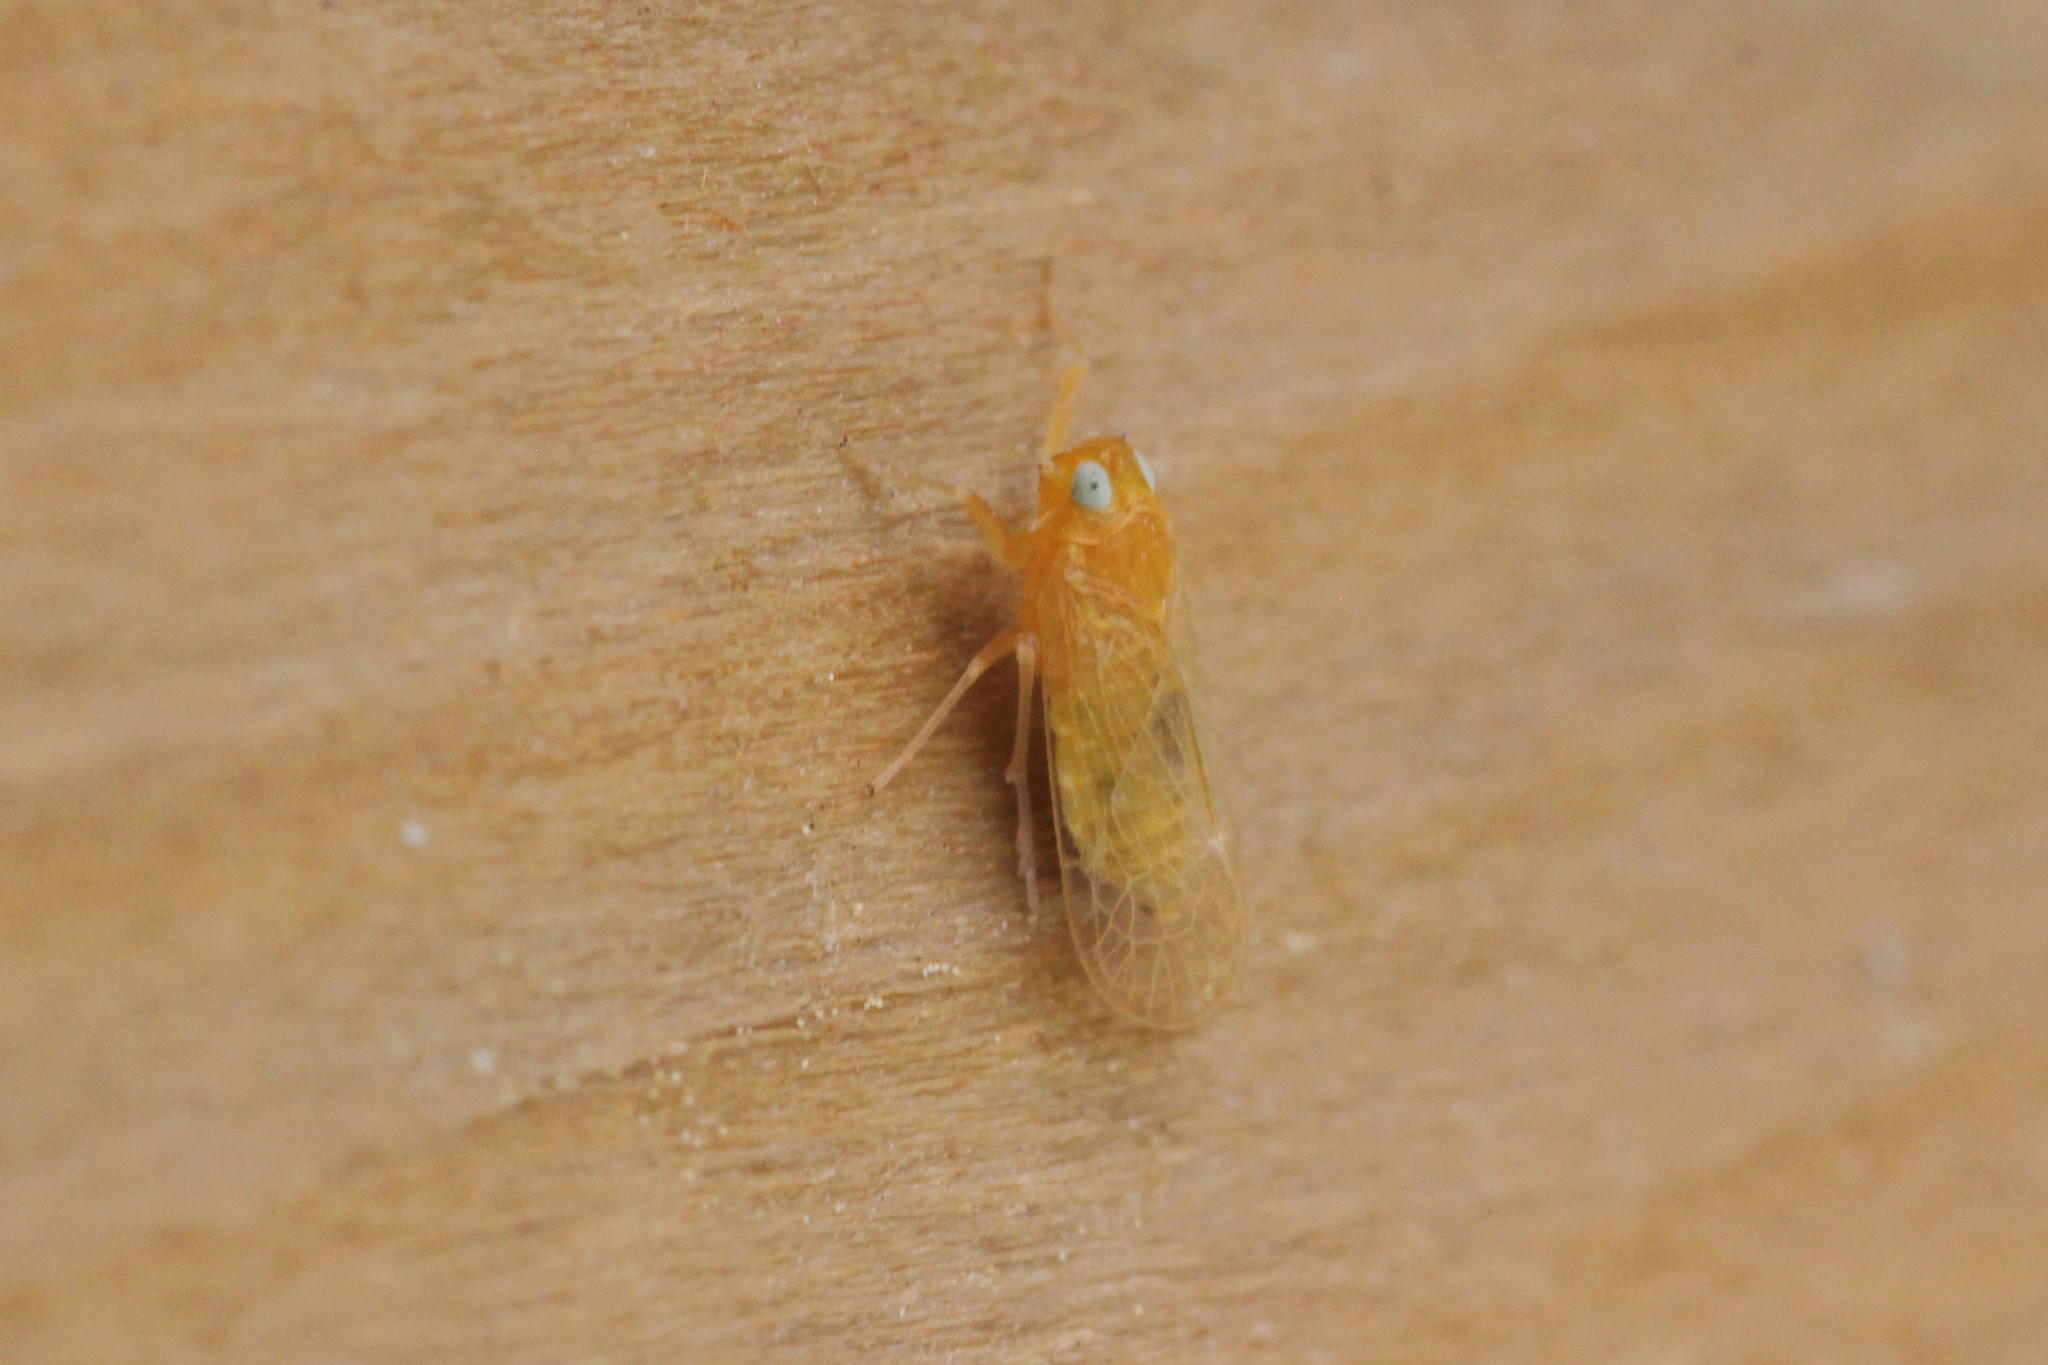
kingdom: Animalia
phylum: Arthropoda
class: Insecta
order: Hemiptera
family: Cixiidae
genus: Haplaxius
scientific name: Haplaxius fulvus
